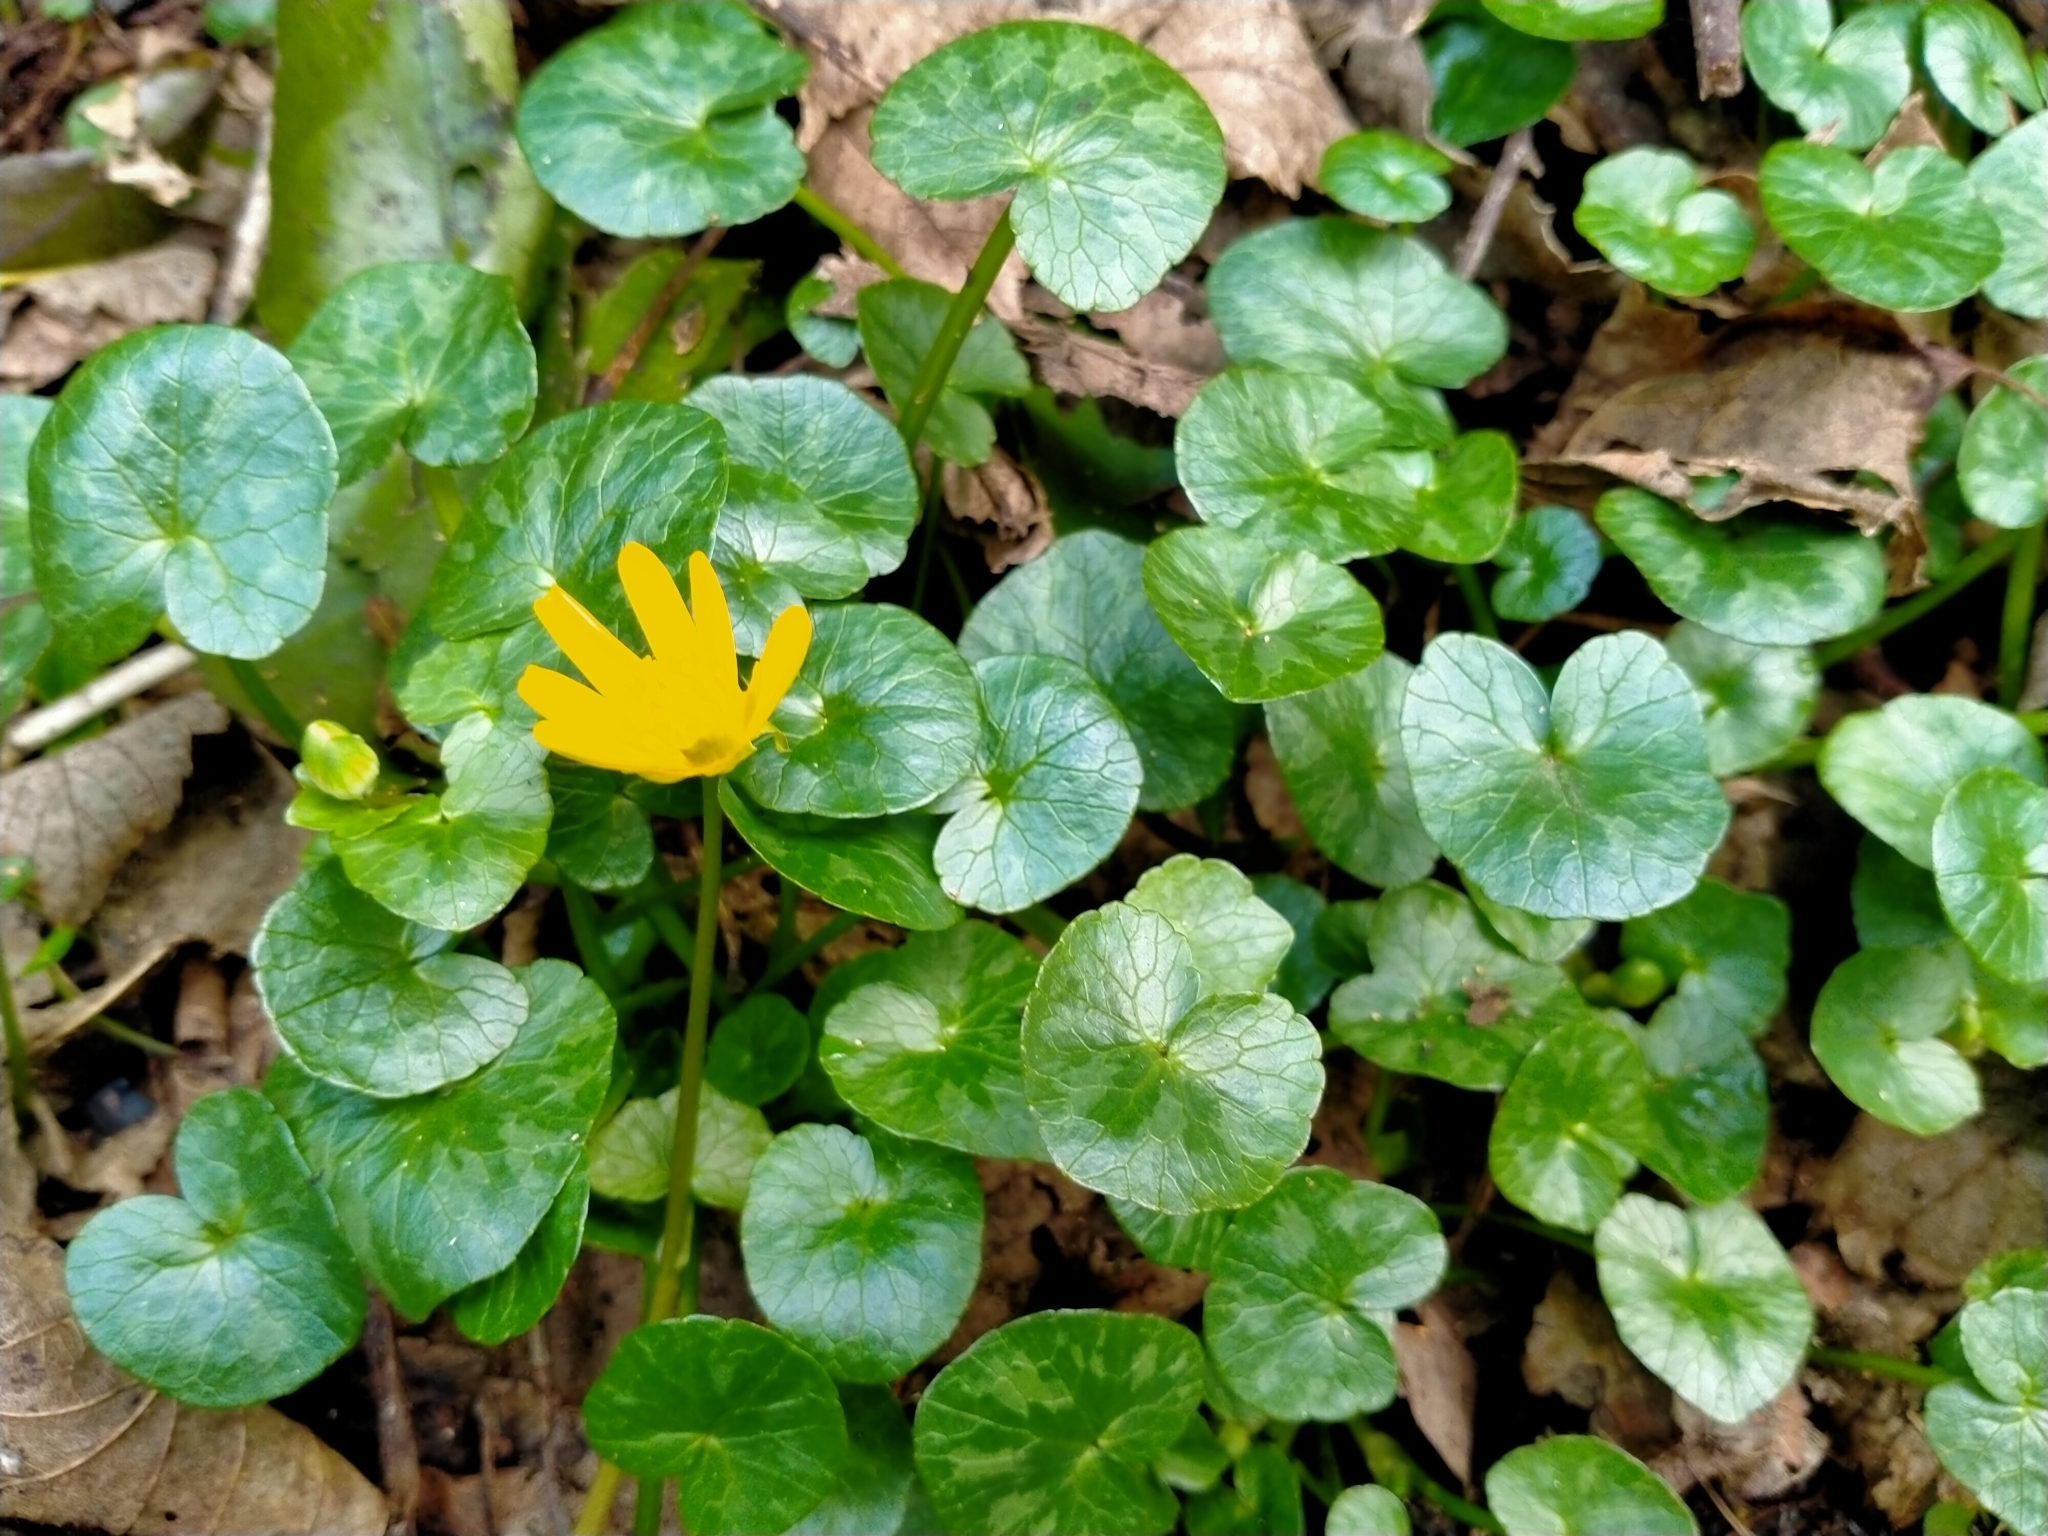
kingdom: Plantae
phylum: Tracheophyta
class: Magnoliopsida
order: Ranunculales
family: Ranunculaceae
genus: Ficaria
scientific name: Ficaria verna
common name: Lesser celandine
